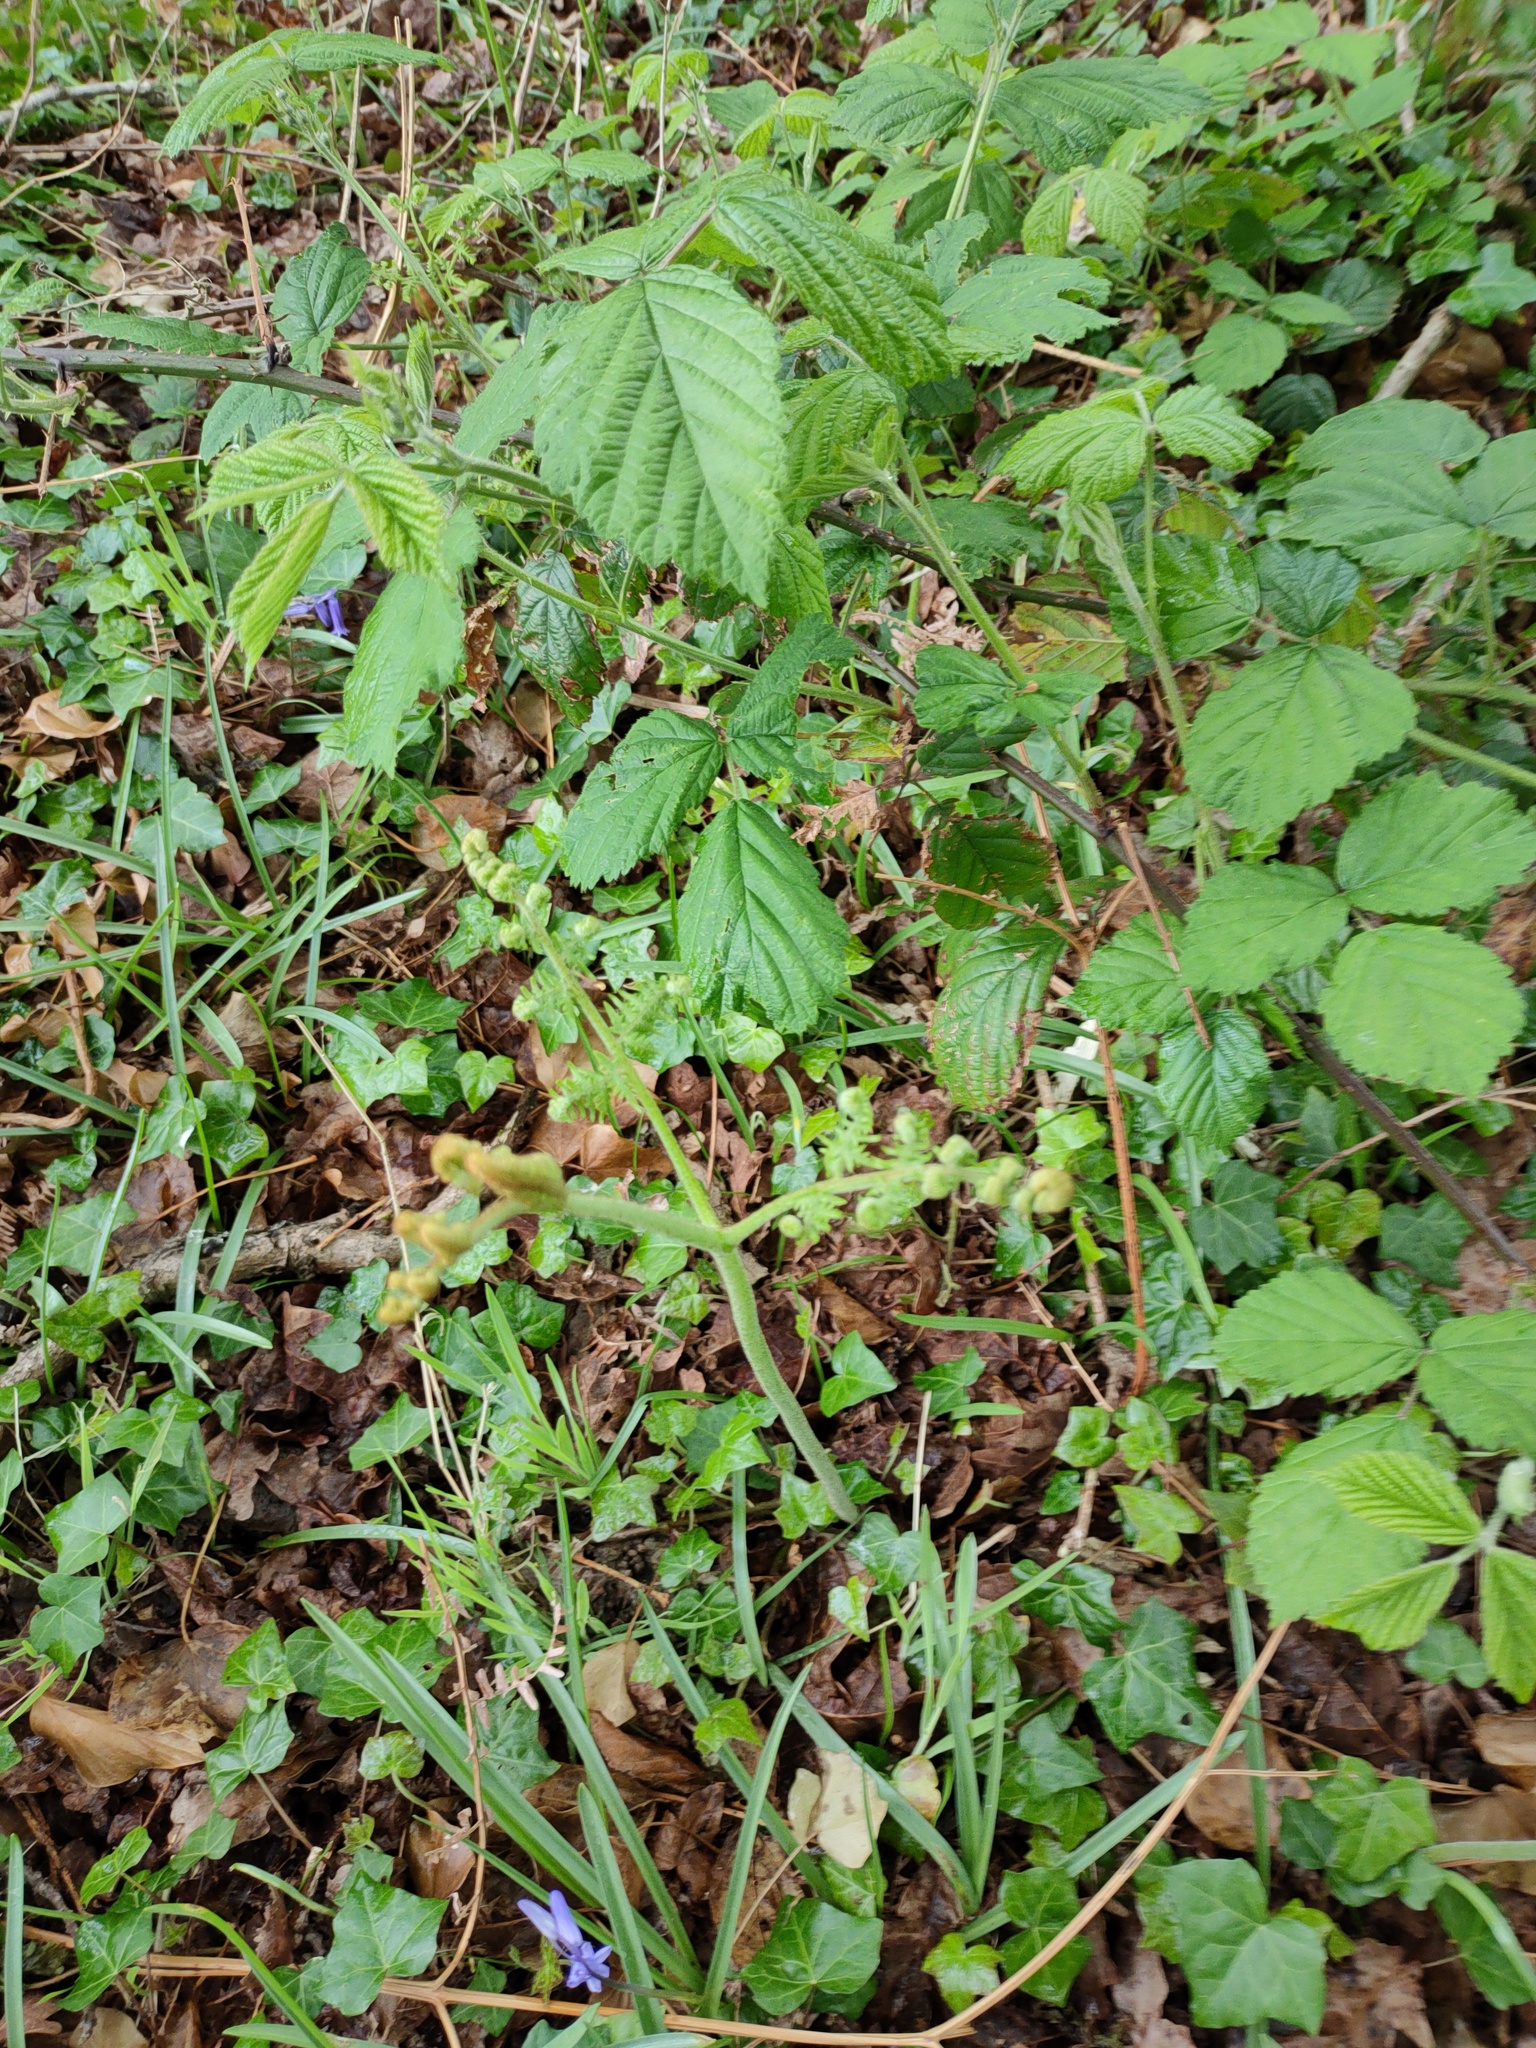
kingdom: Plantae
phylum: Tracheophyta
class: Polypodiopsida
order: Polypodiales
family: Dennstaedtiaceae
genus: Pteridium
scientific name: Pteridium aquilinum
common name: Bracken
